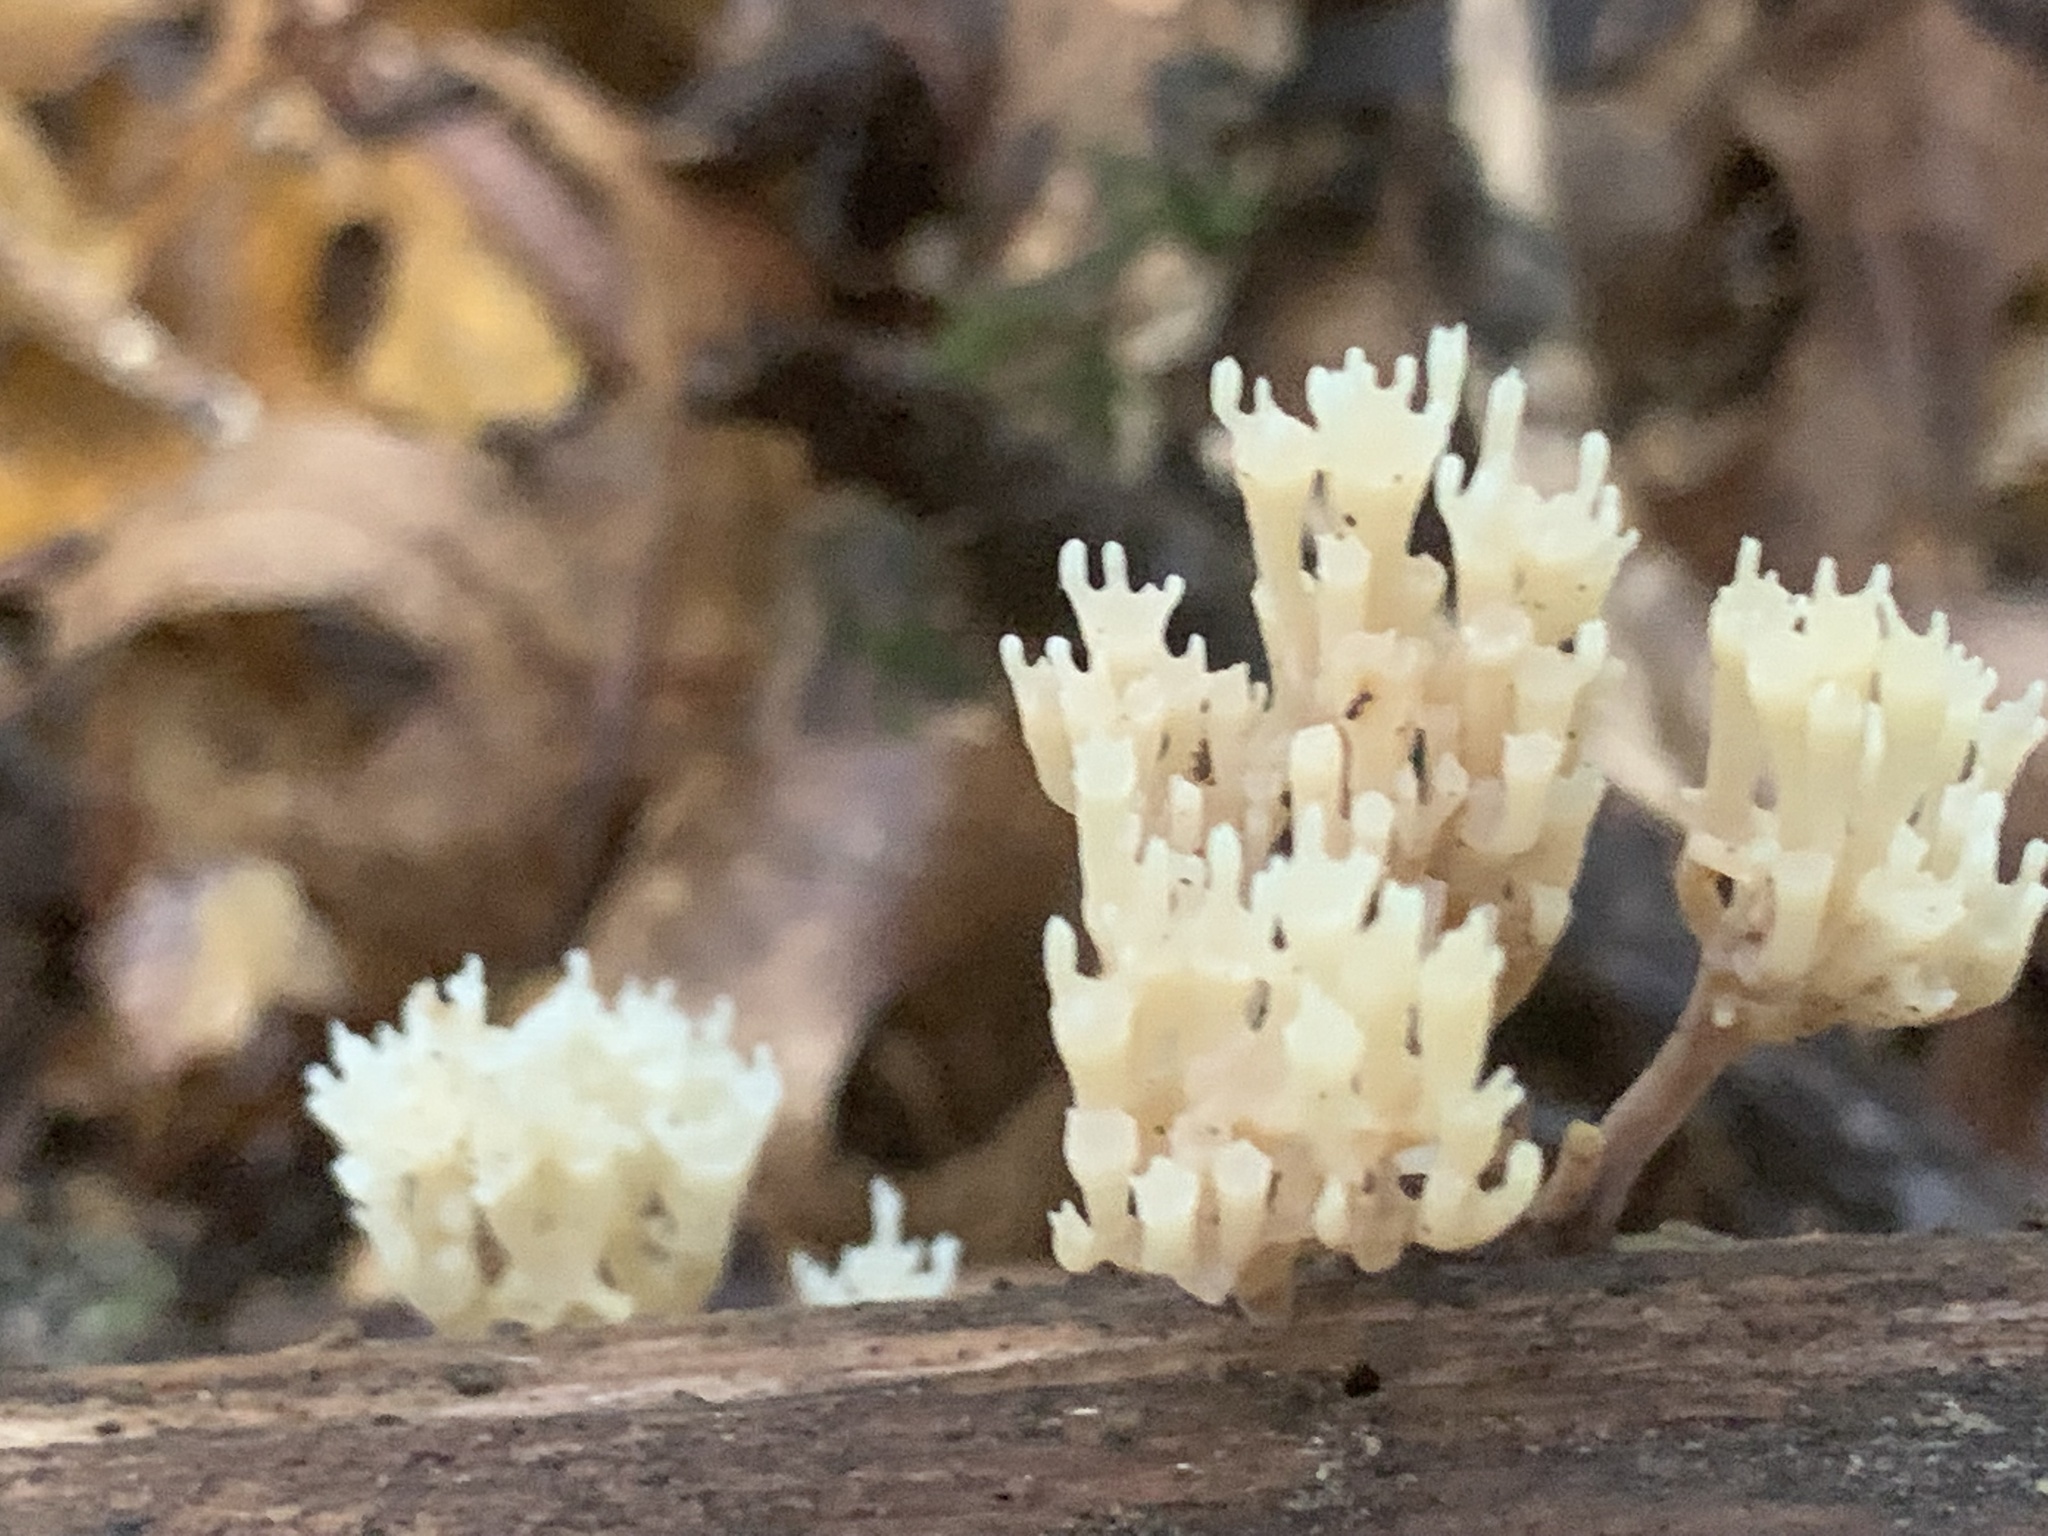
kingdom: Fungi
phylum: Basidiomycota
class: Agaricomycetes
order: Russulales
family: Auriscalpiaceae
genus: Artomyces
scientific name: Artomyces pyxidatus
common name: Crown-tipped coral fungus
